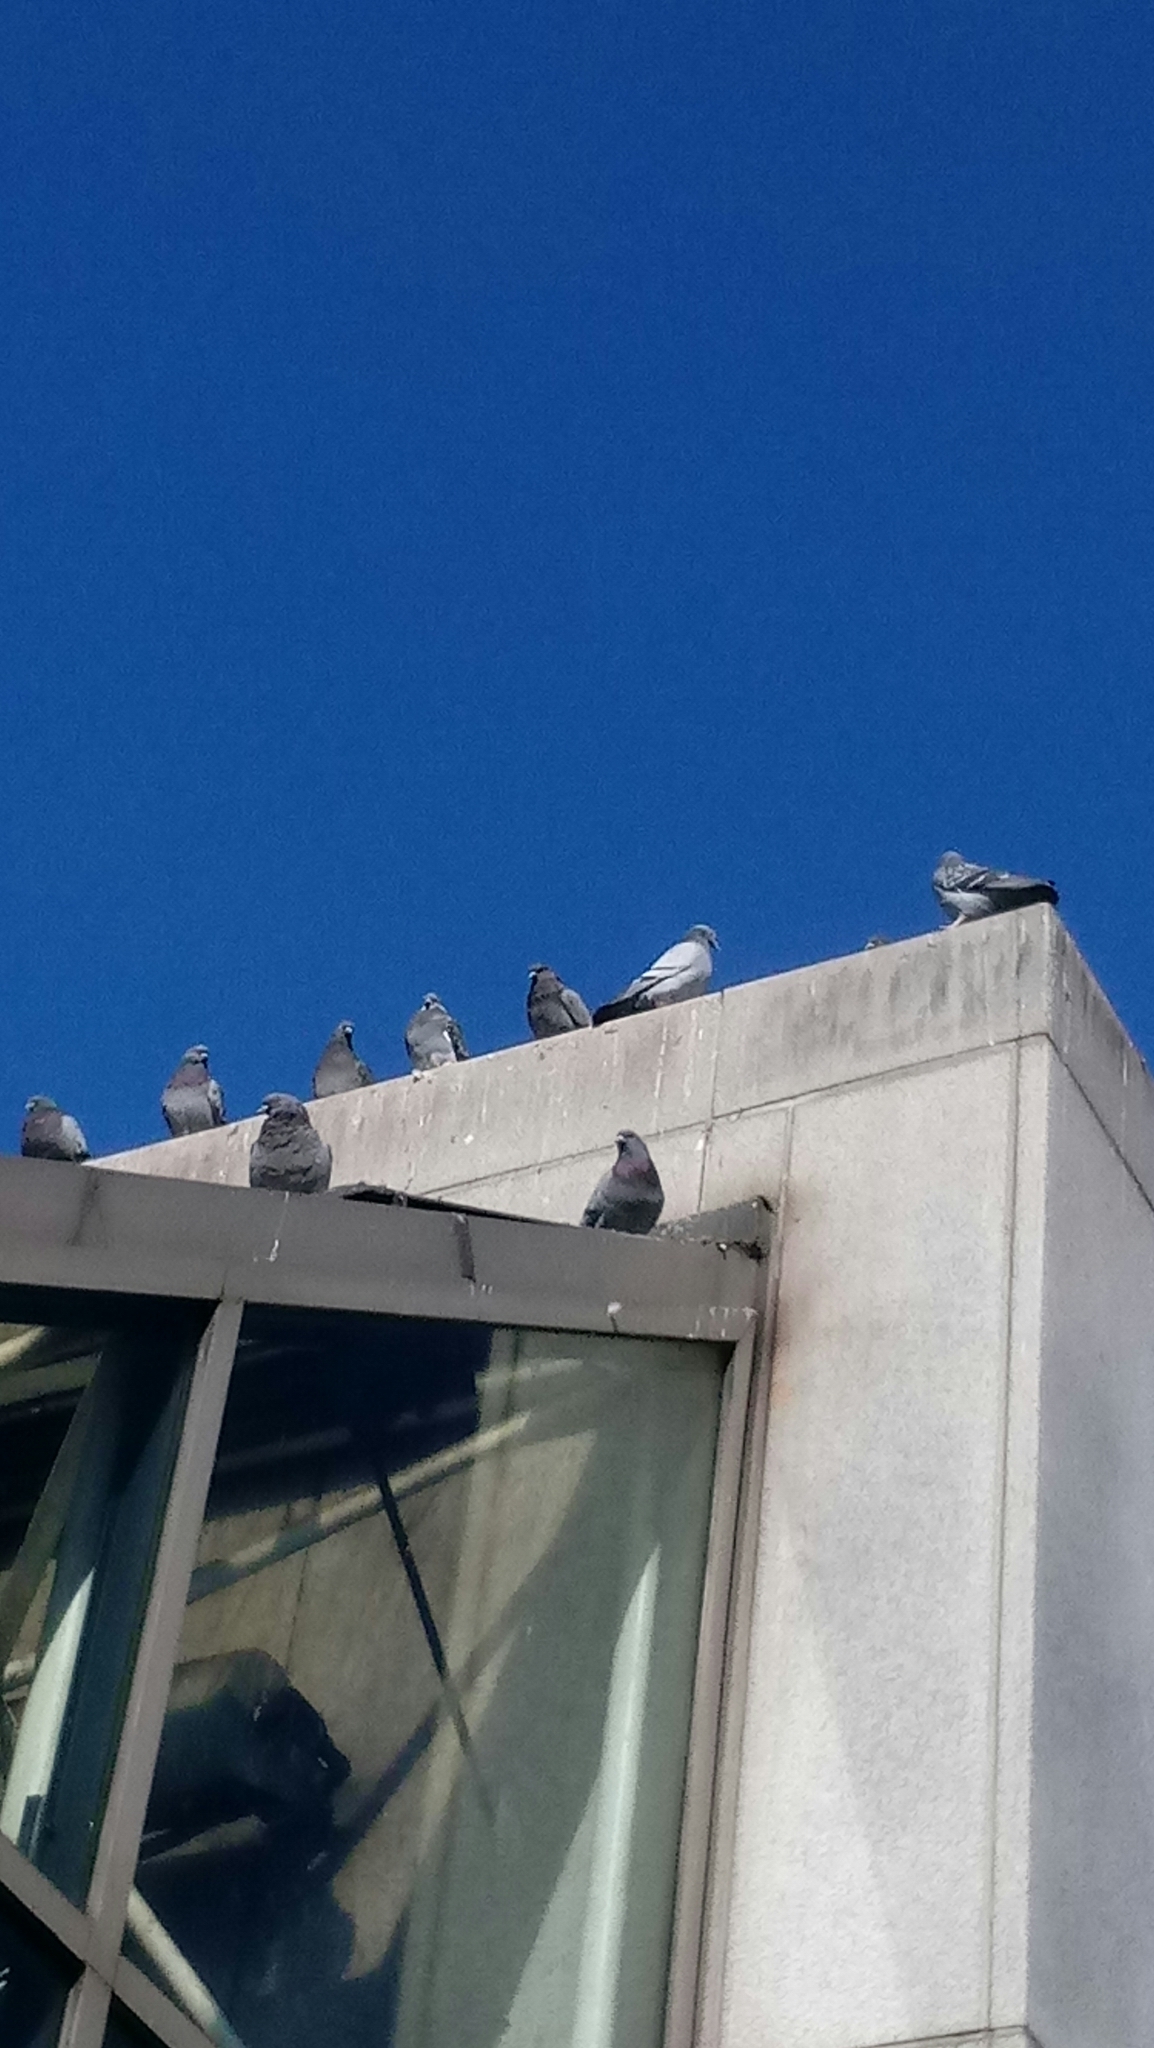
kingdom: Animalia
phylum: Chordata
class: Aves
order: Columbiformes
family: Columbidae
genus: Columba
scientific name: Columba livia
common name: Rock pigeon
